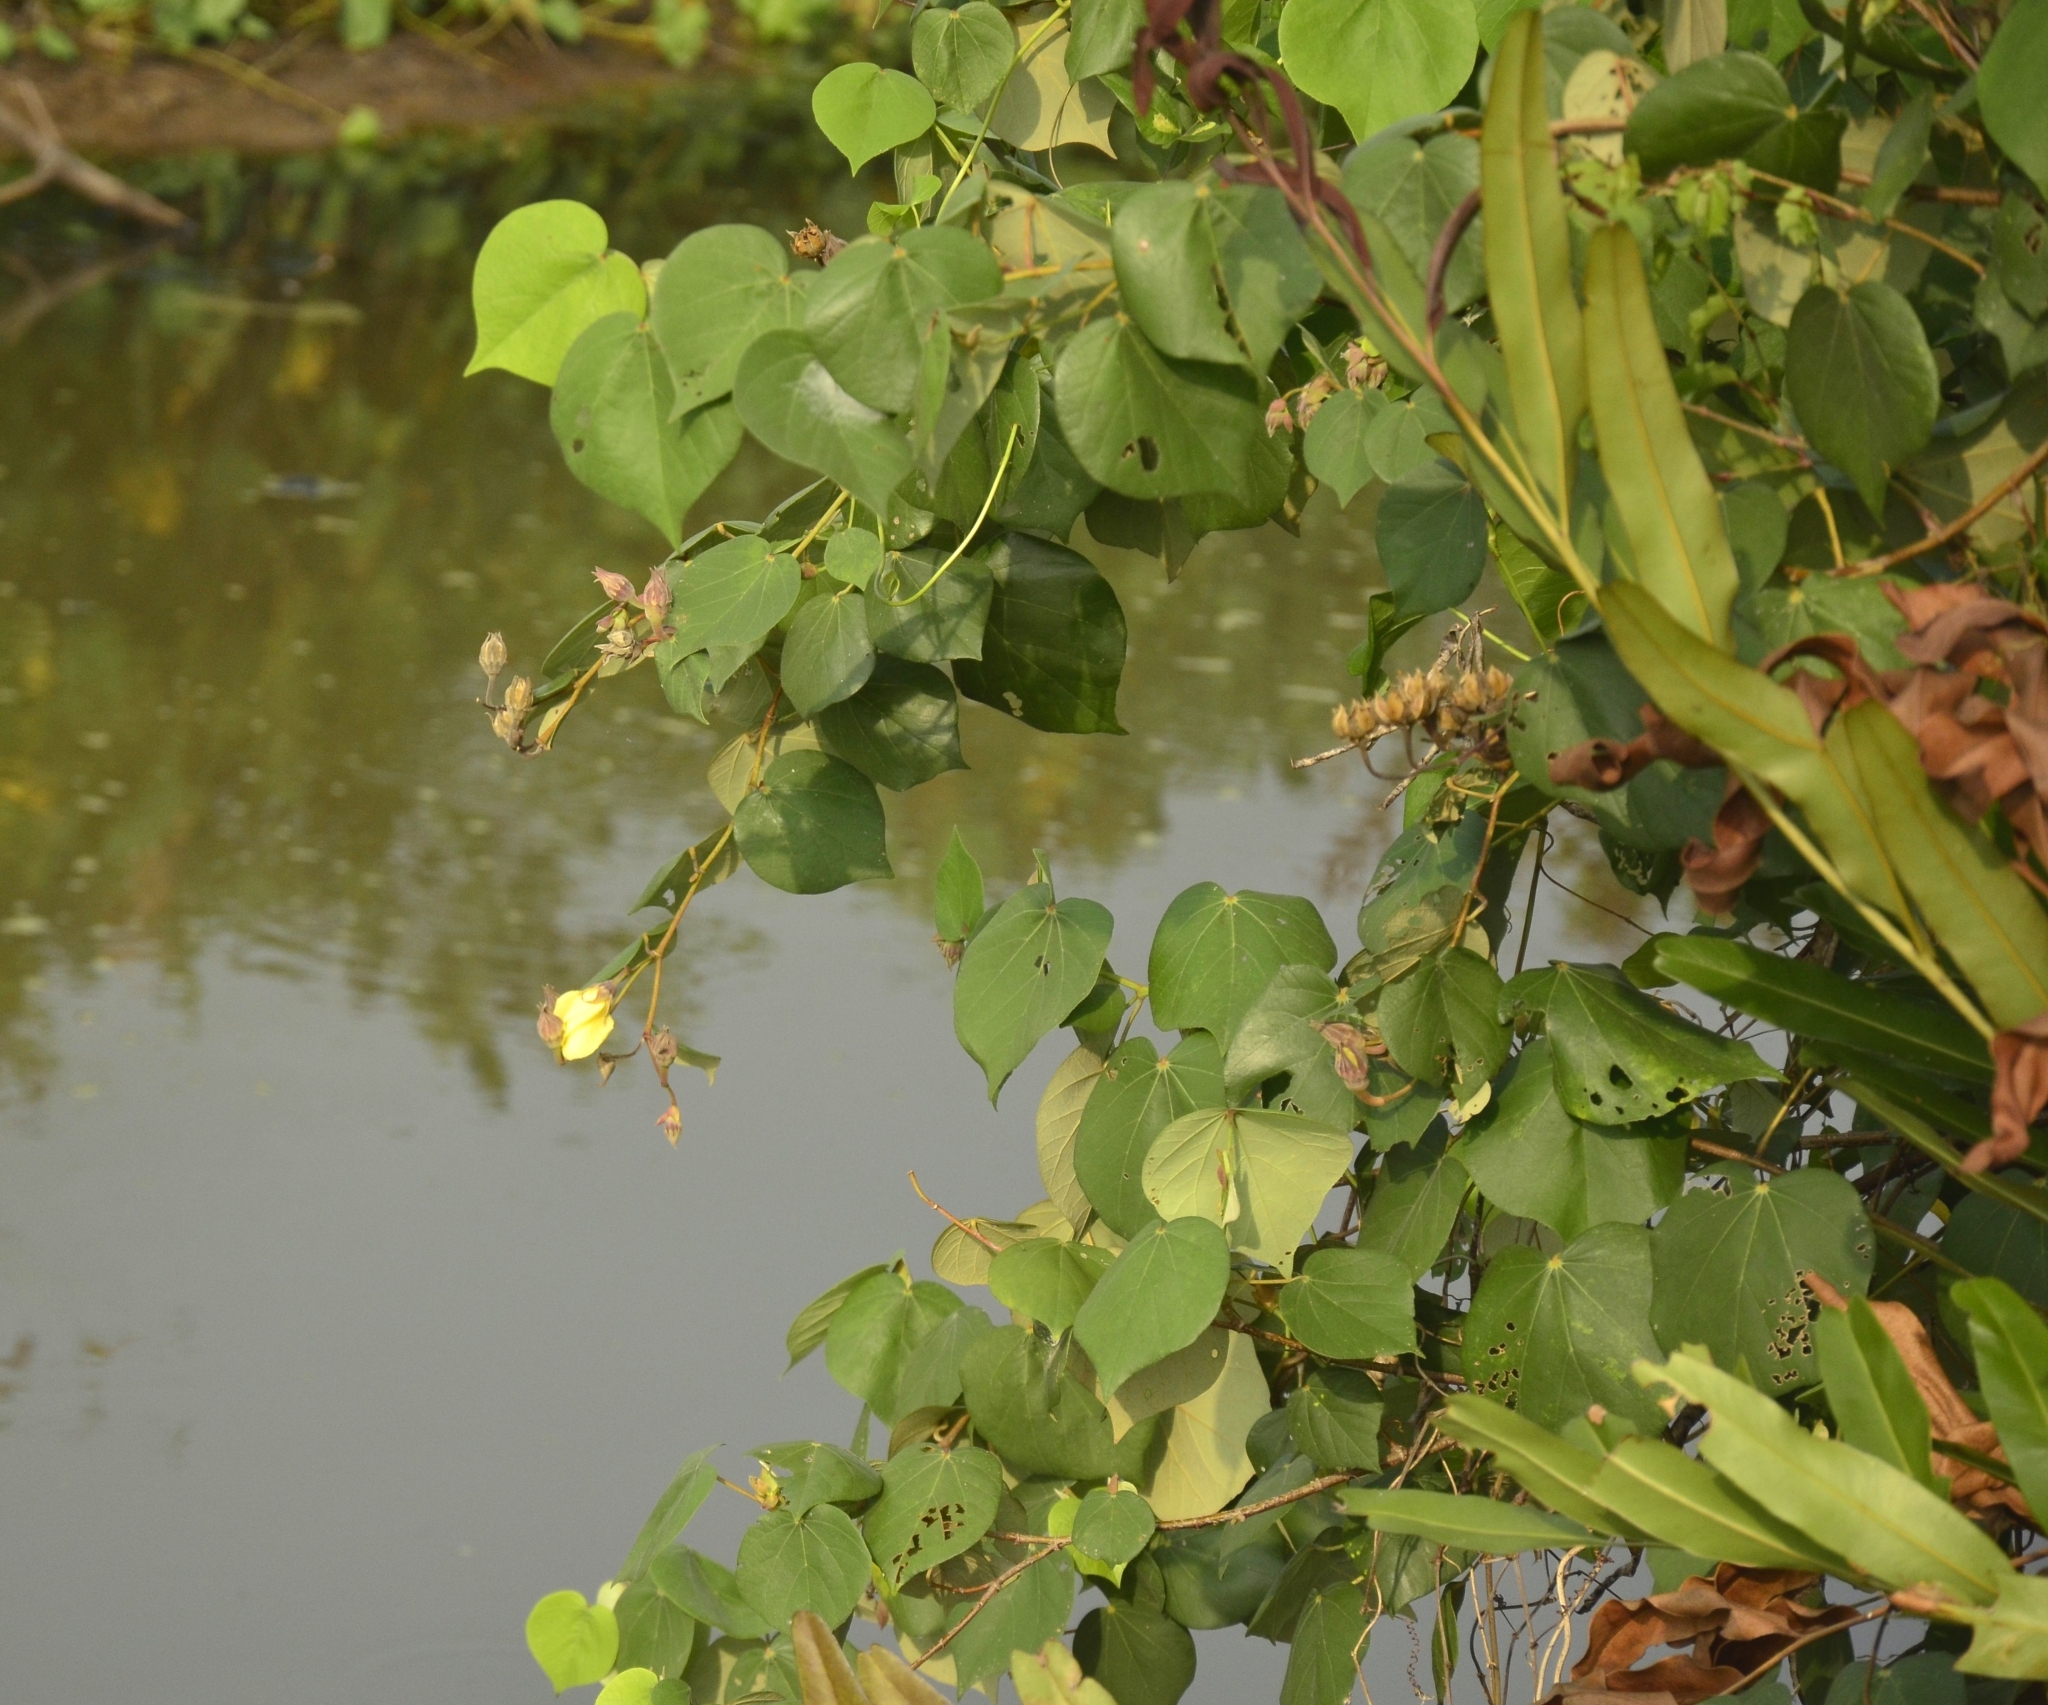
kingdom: Plantae
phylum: Tracheophyta
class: Magnoliopsida
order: Malvales
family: Malvaceae
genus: Talipariti
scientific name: Talipariti tiliaceum
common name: Sea hibiscus
